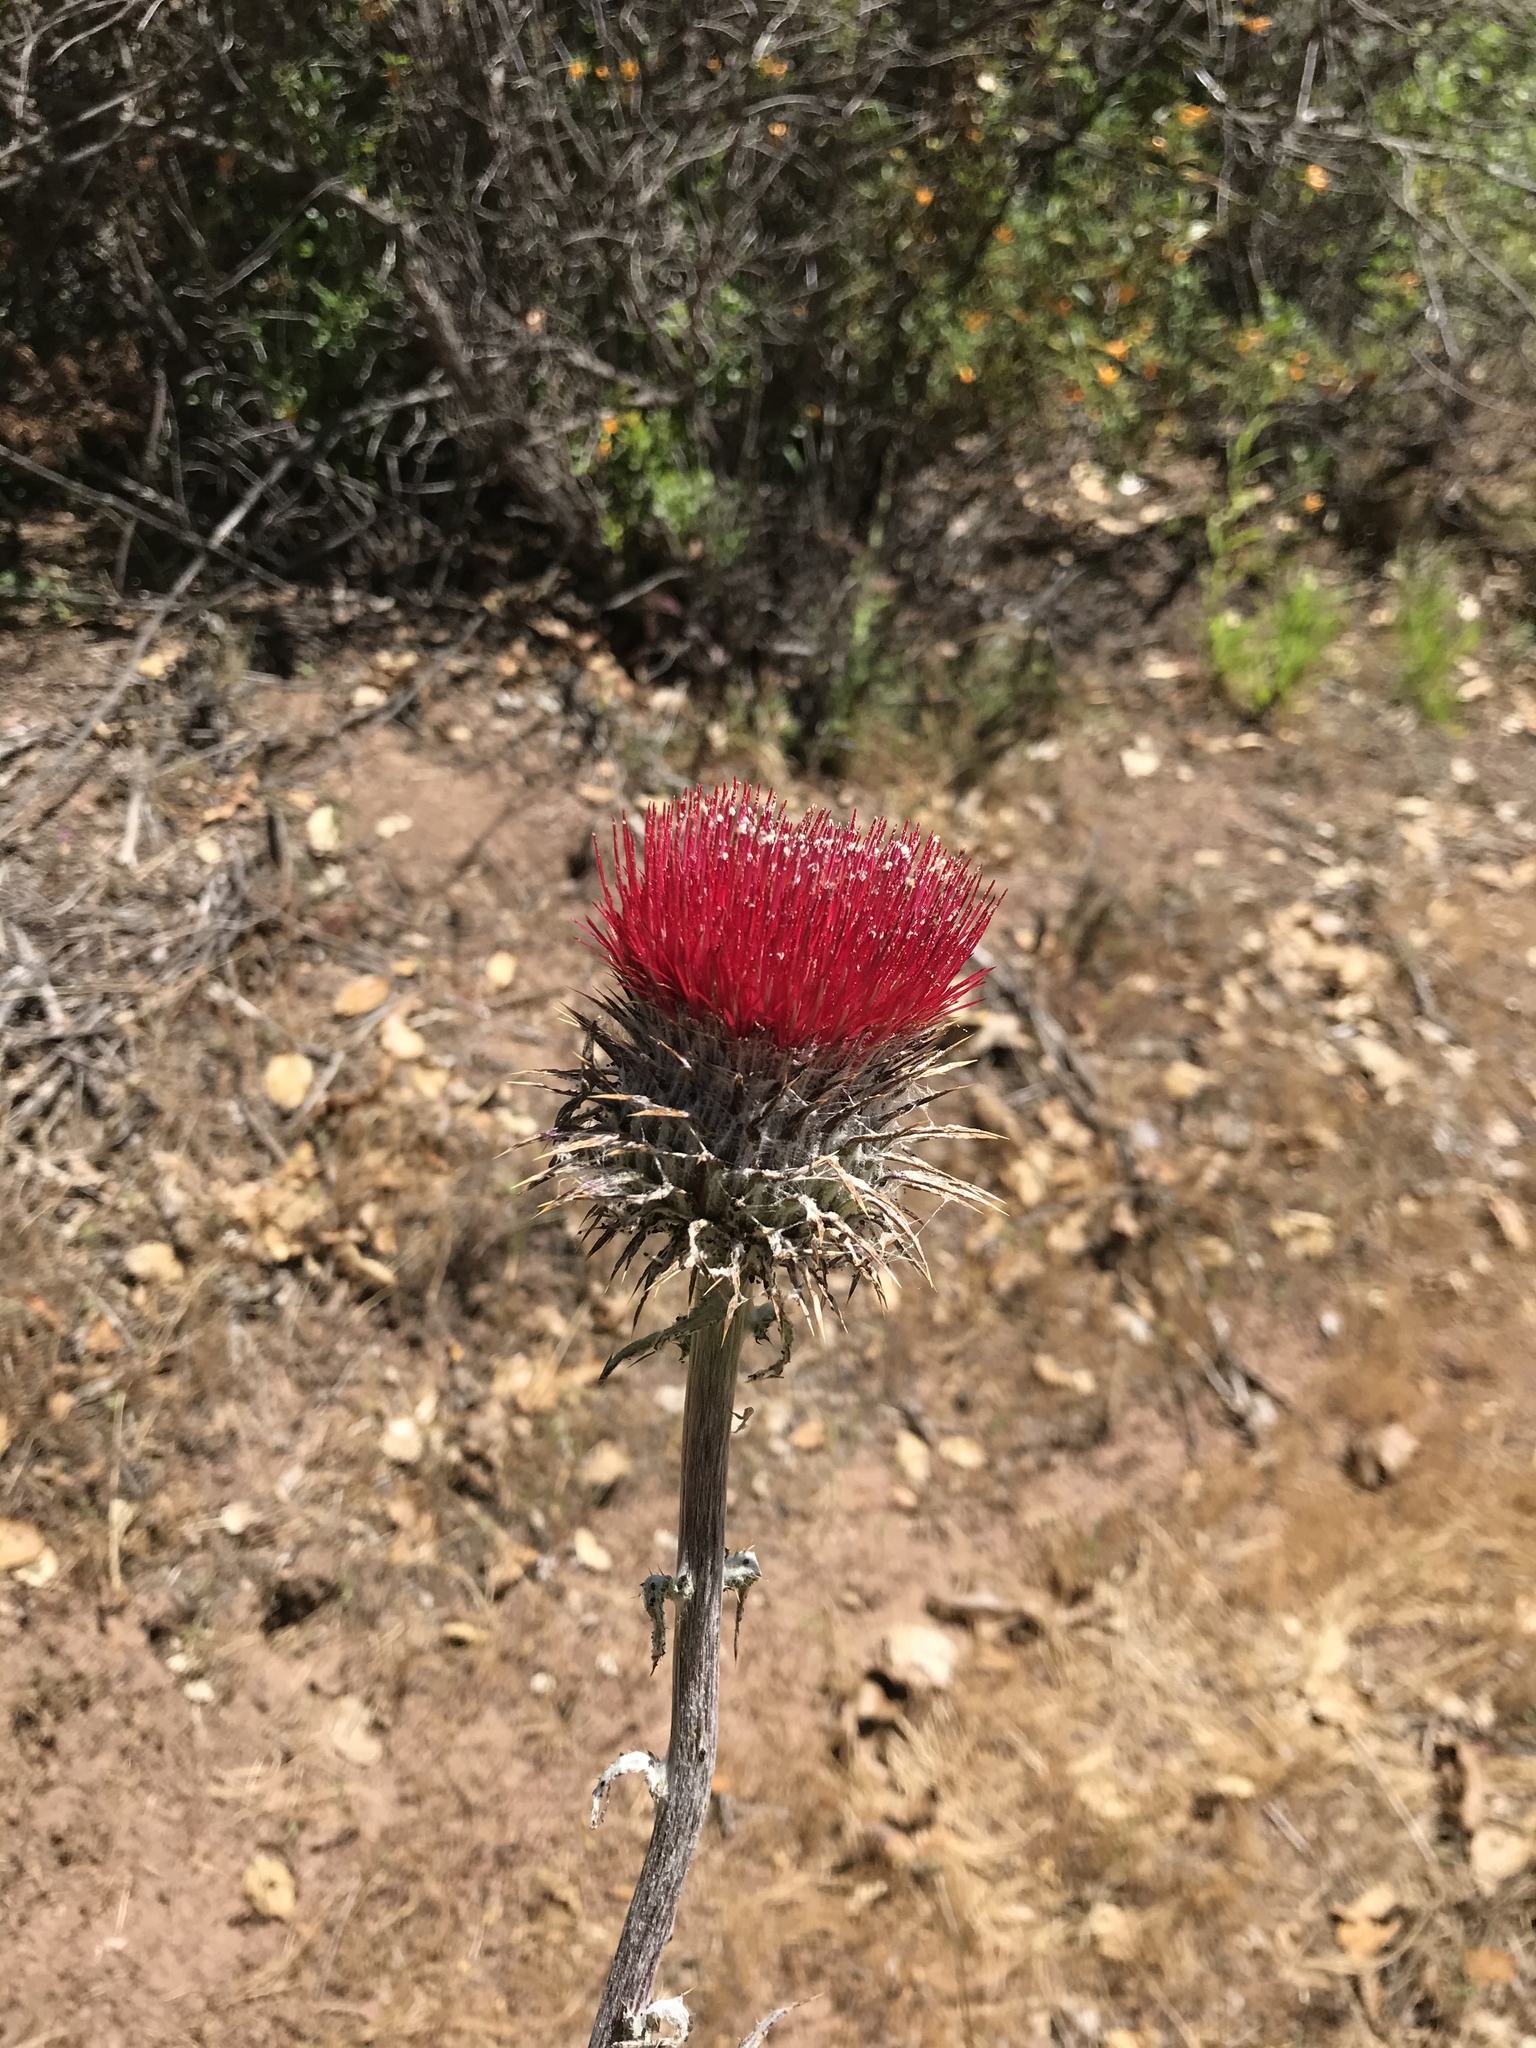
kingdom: Plantae
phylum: Tracheophyta
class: Magnoliopsida
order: Asterales
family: Asteraceae
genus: Cirsium
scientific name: Cirsium occidentale
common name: Western thistle
